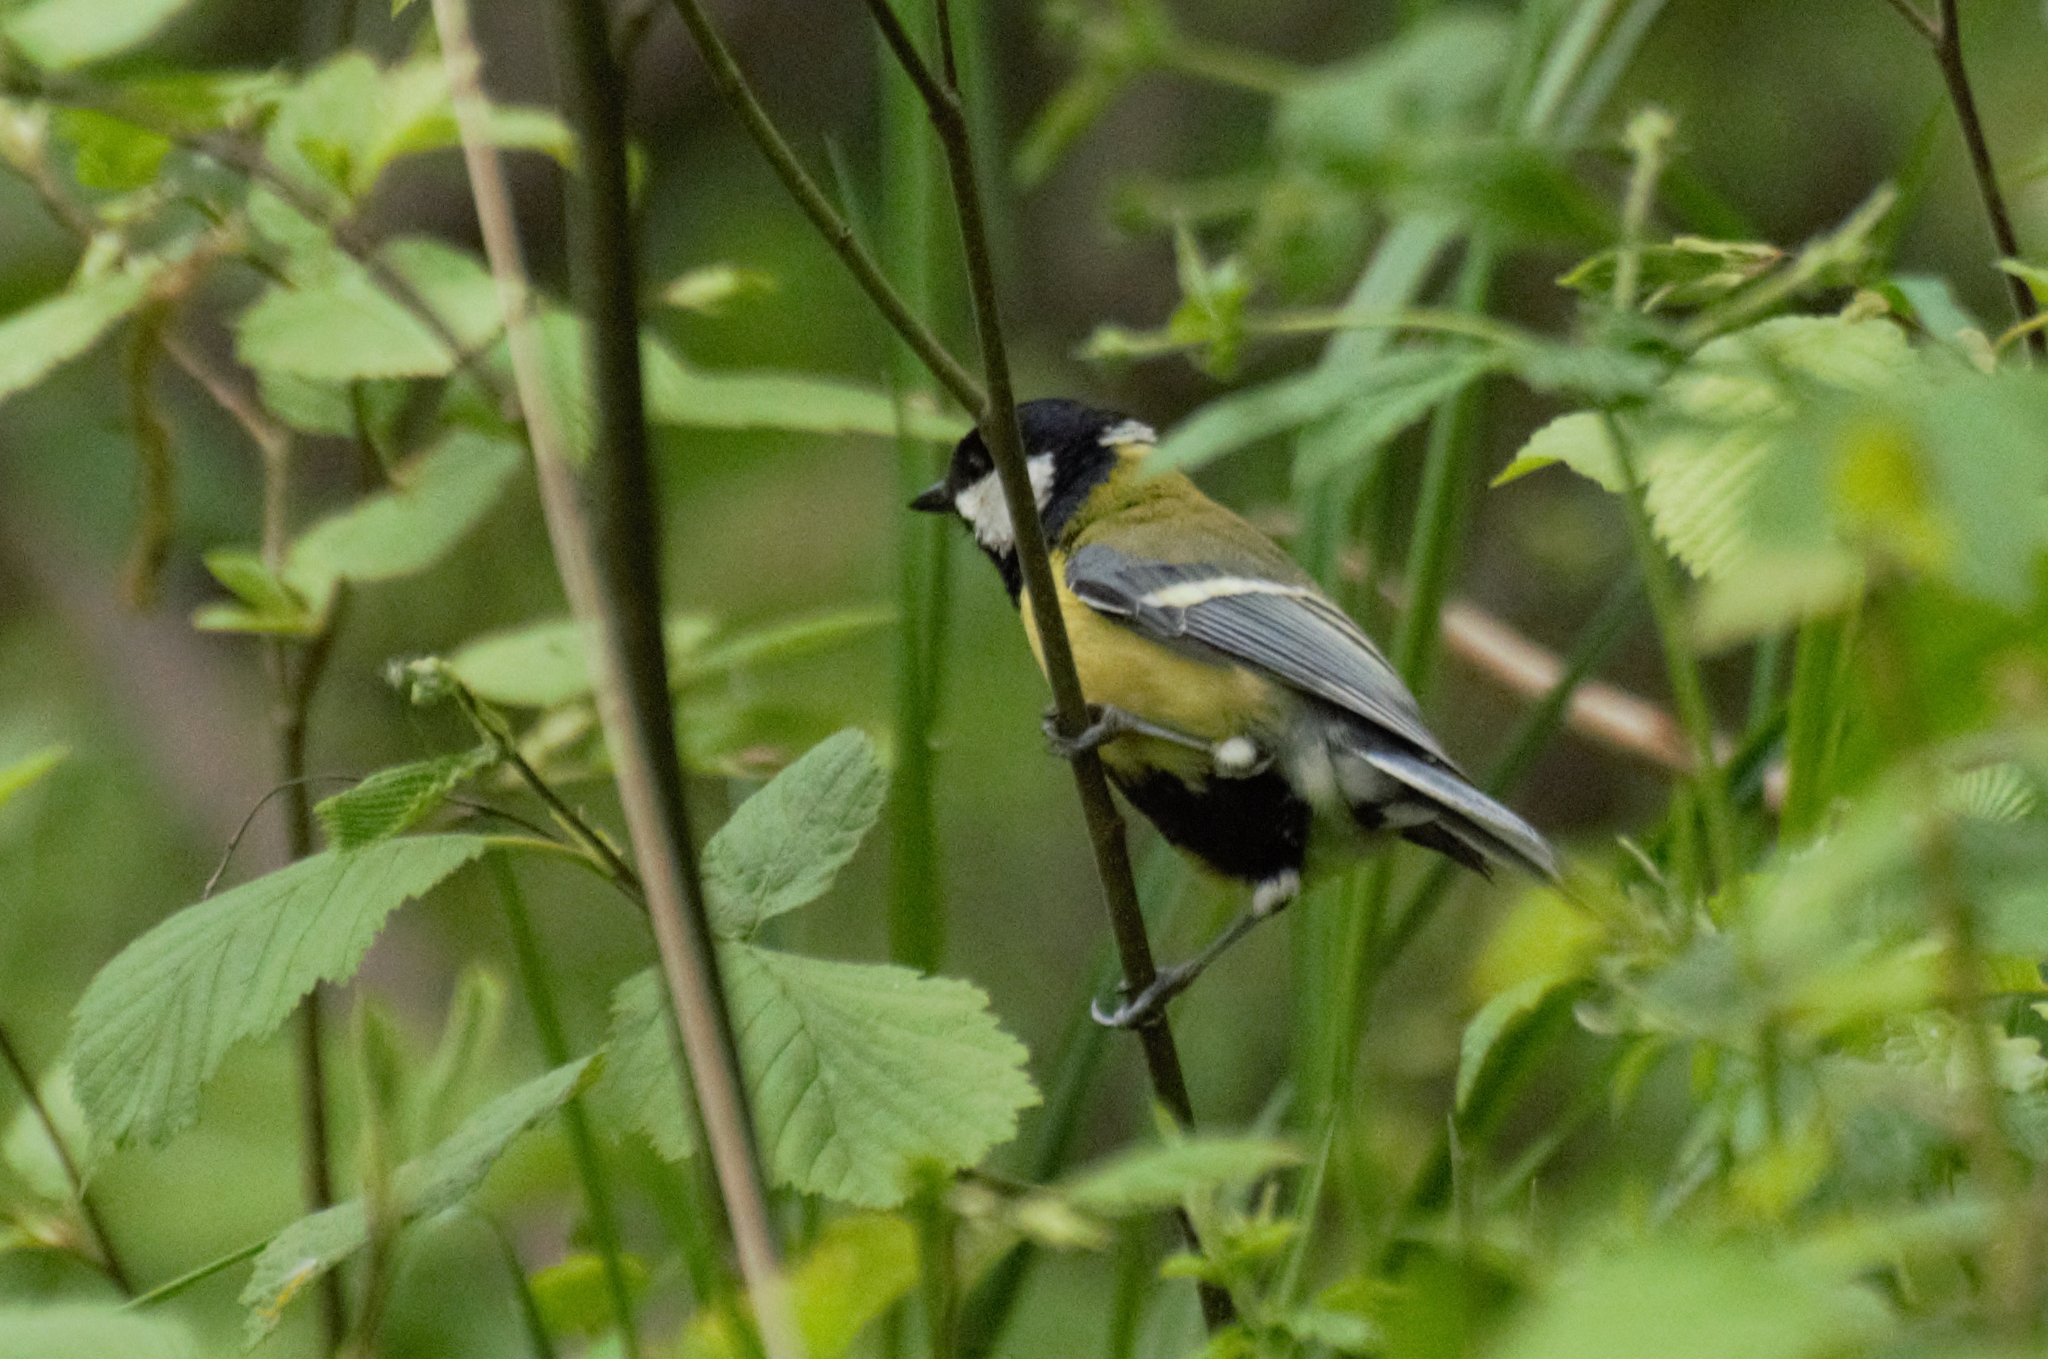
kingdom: Animalia
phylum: Chordata
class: Aves
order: Passeriformes
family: Paridae
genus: Parus
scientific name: Parus major
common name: Great tit
